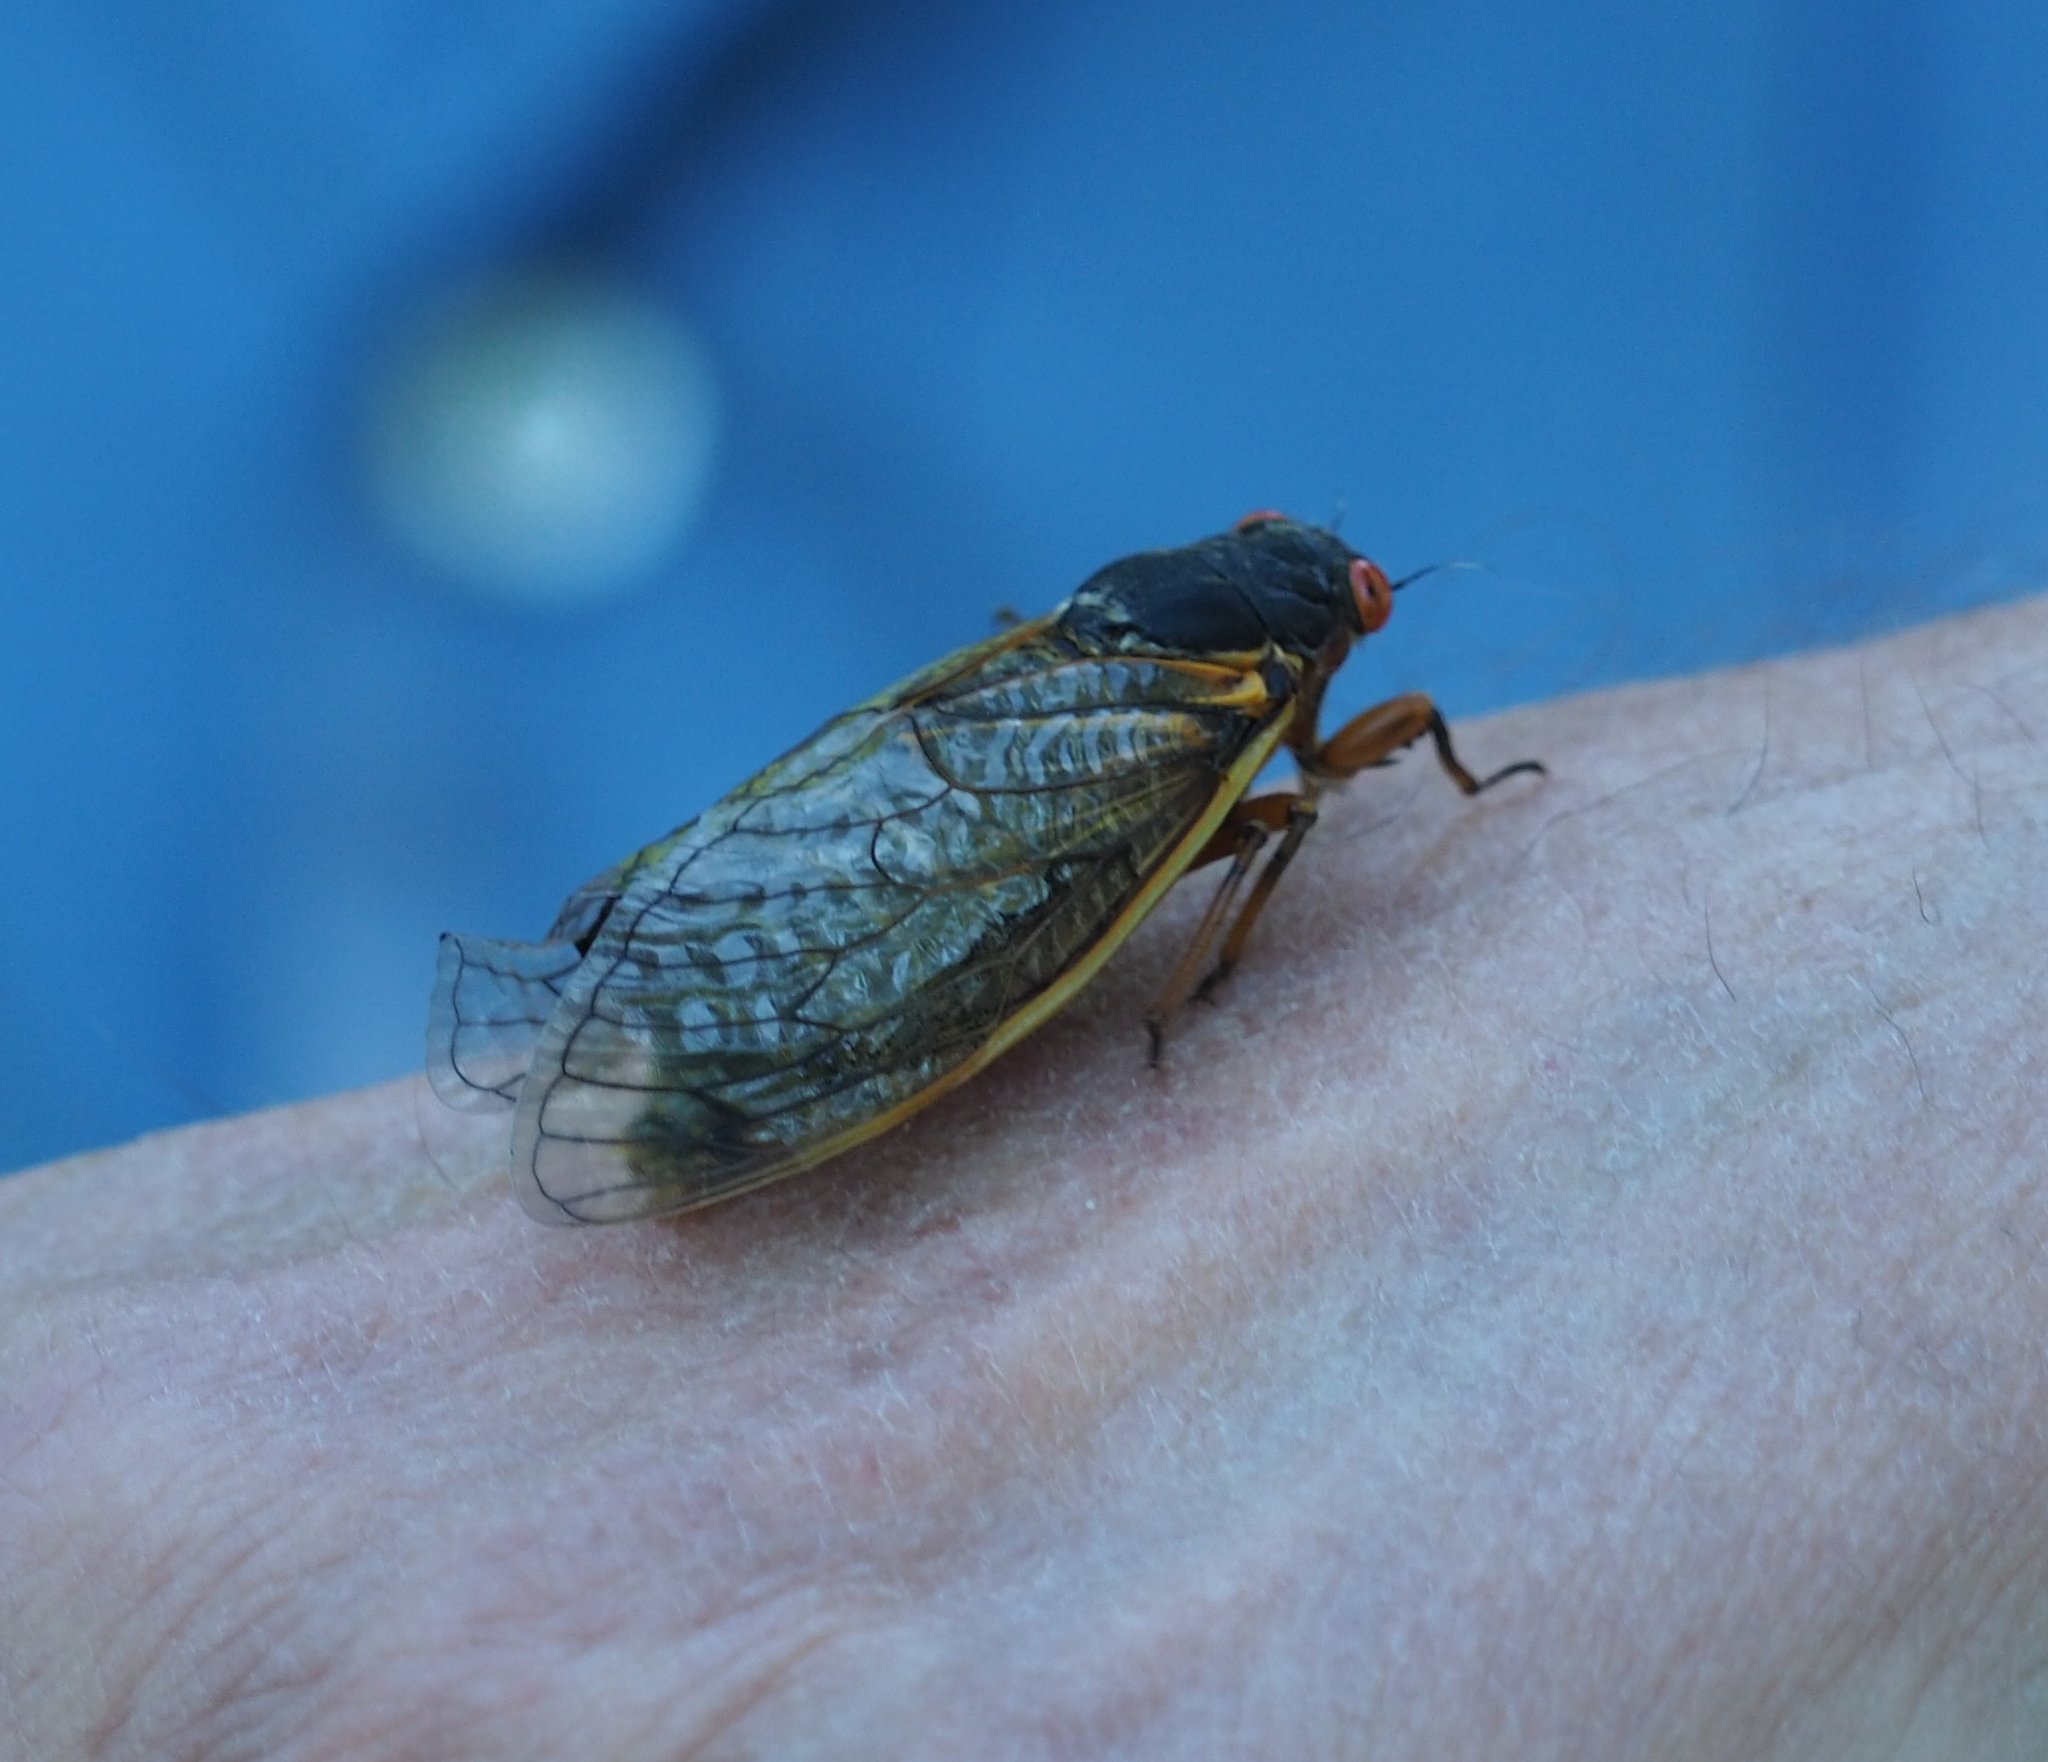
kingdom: Animalia
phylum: Arthropoda
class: Insecta
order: Hemiptera
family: Cicadidae
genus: Magicicada
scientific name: Magicicada
